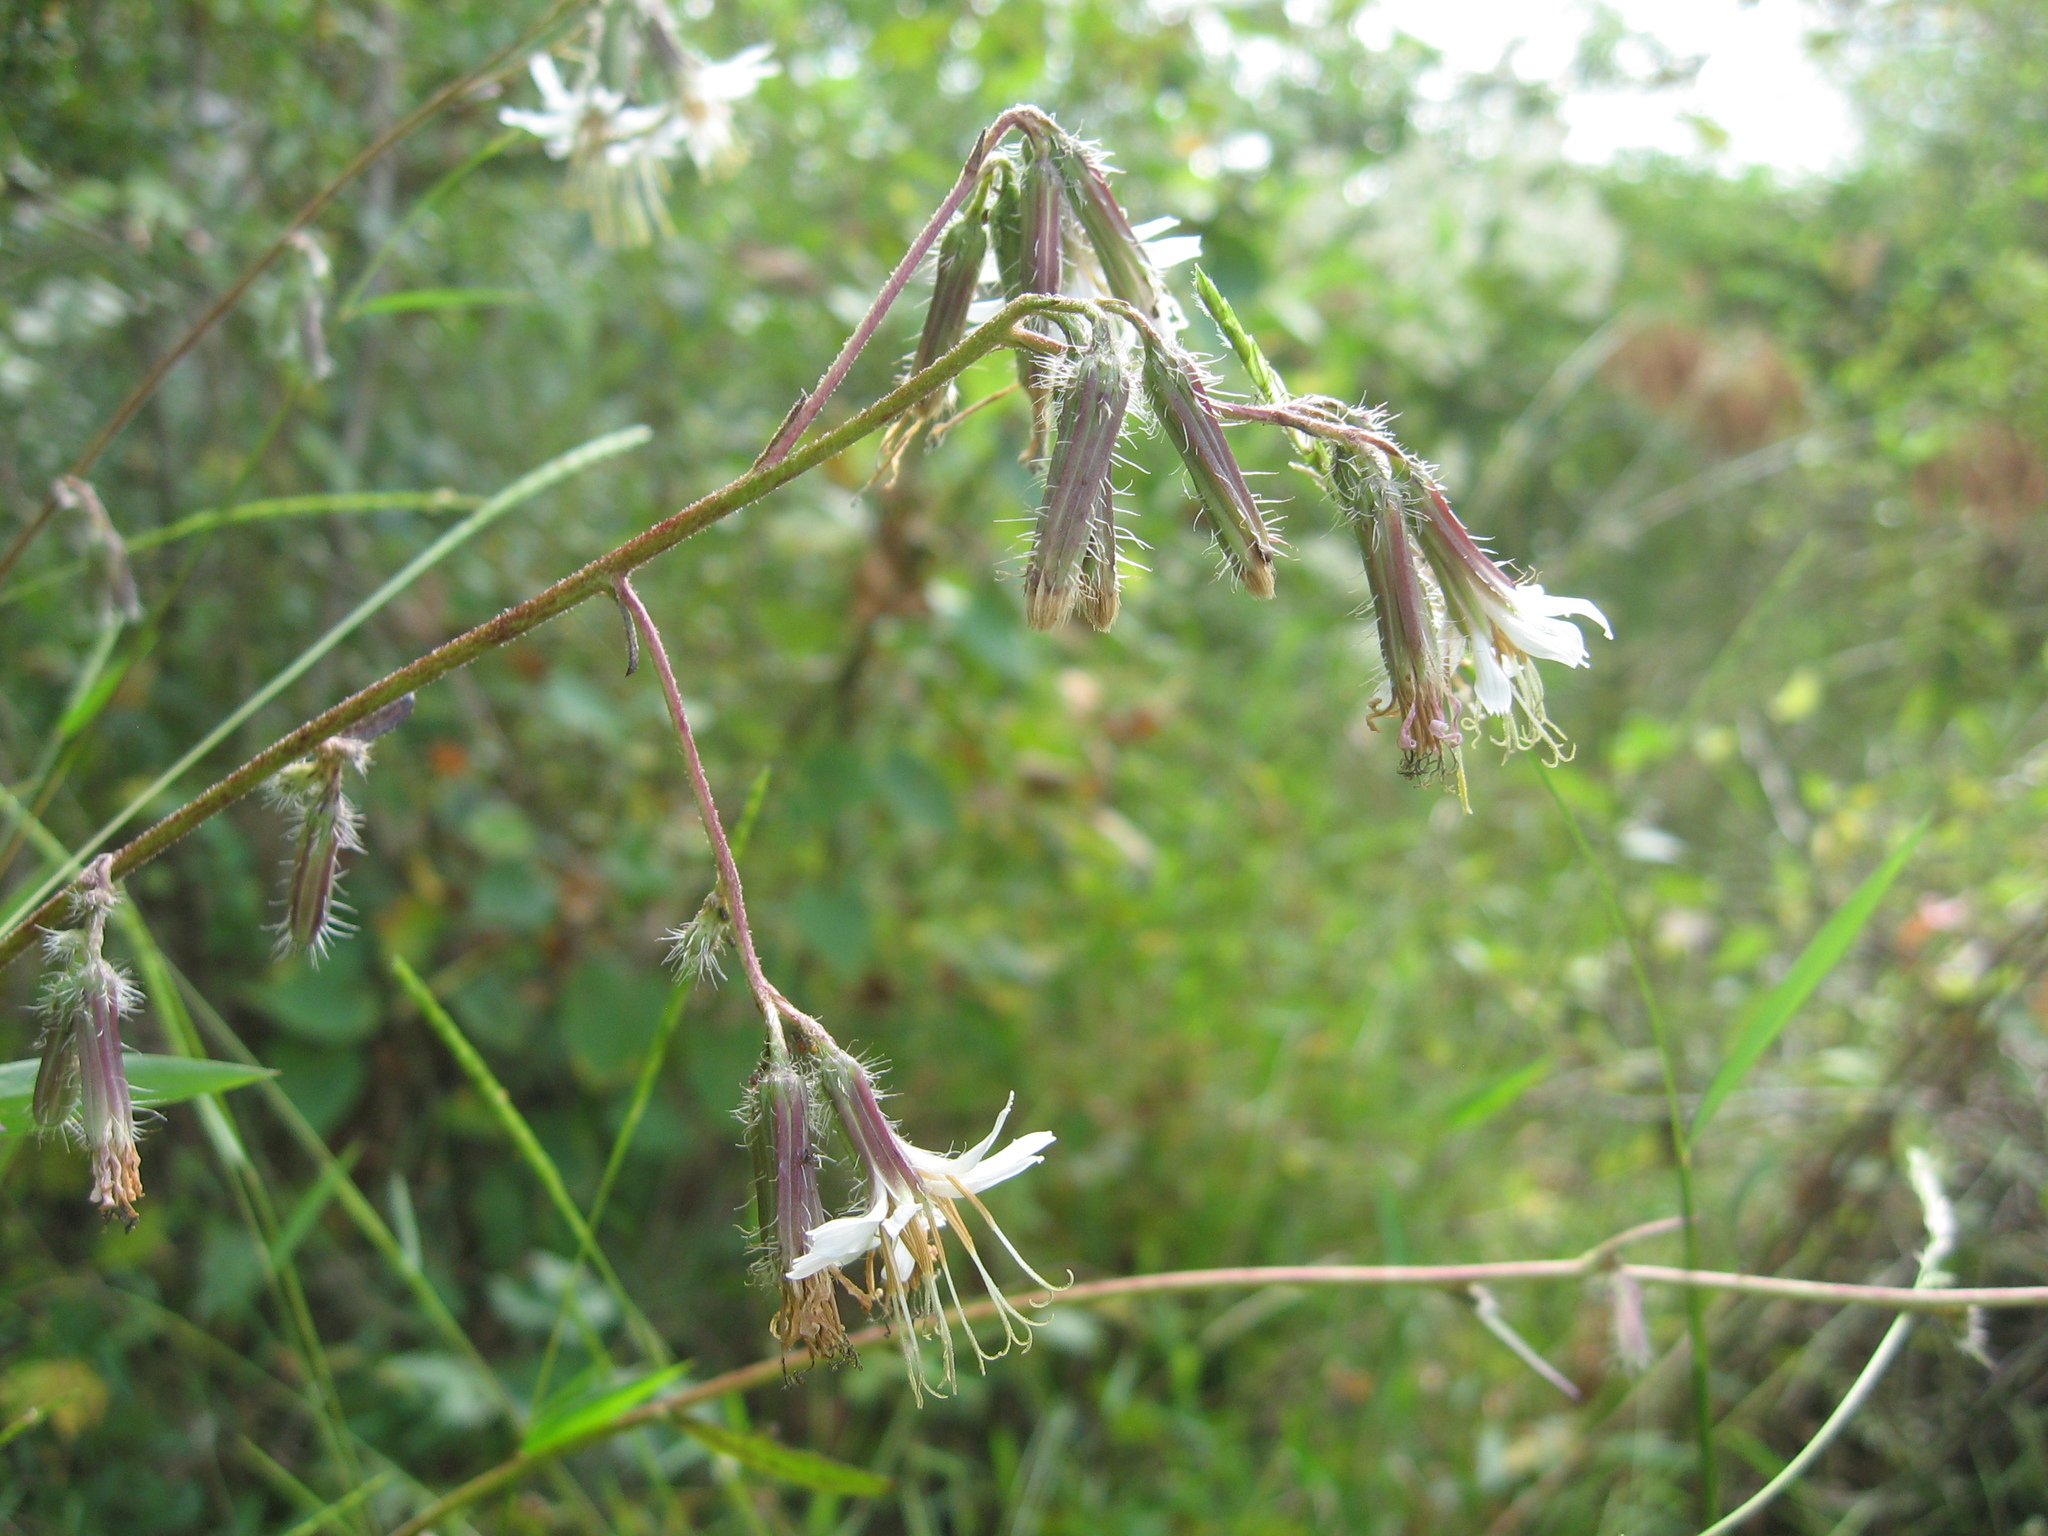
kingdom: Plantae
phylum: Tracheophyta
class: Magnoliopsida
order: Asterales
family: Asteraceae
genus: Nabalus
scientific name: Nabalus barbata
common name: Barbed rattlesnakeroot
